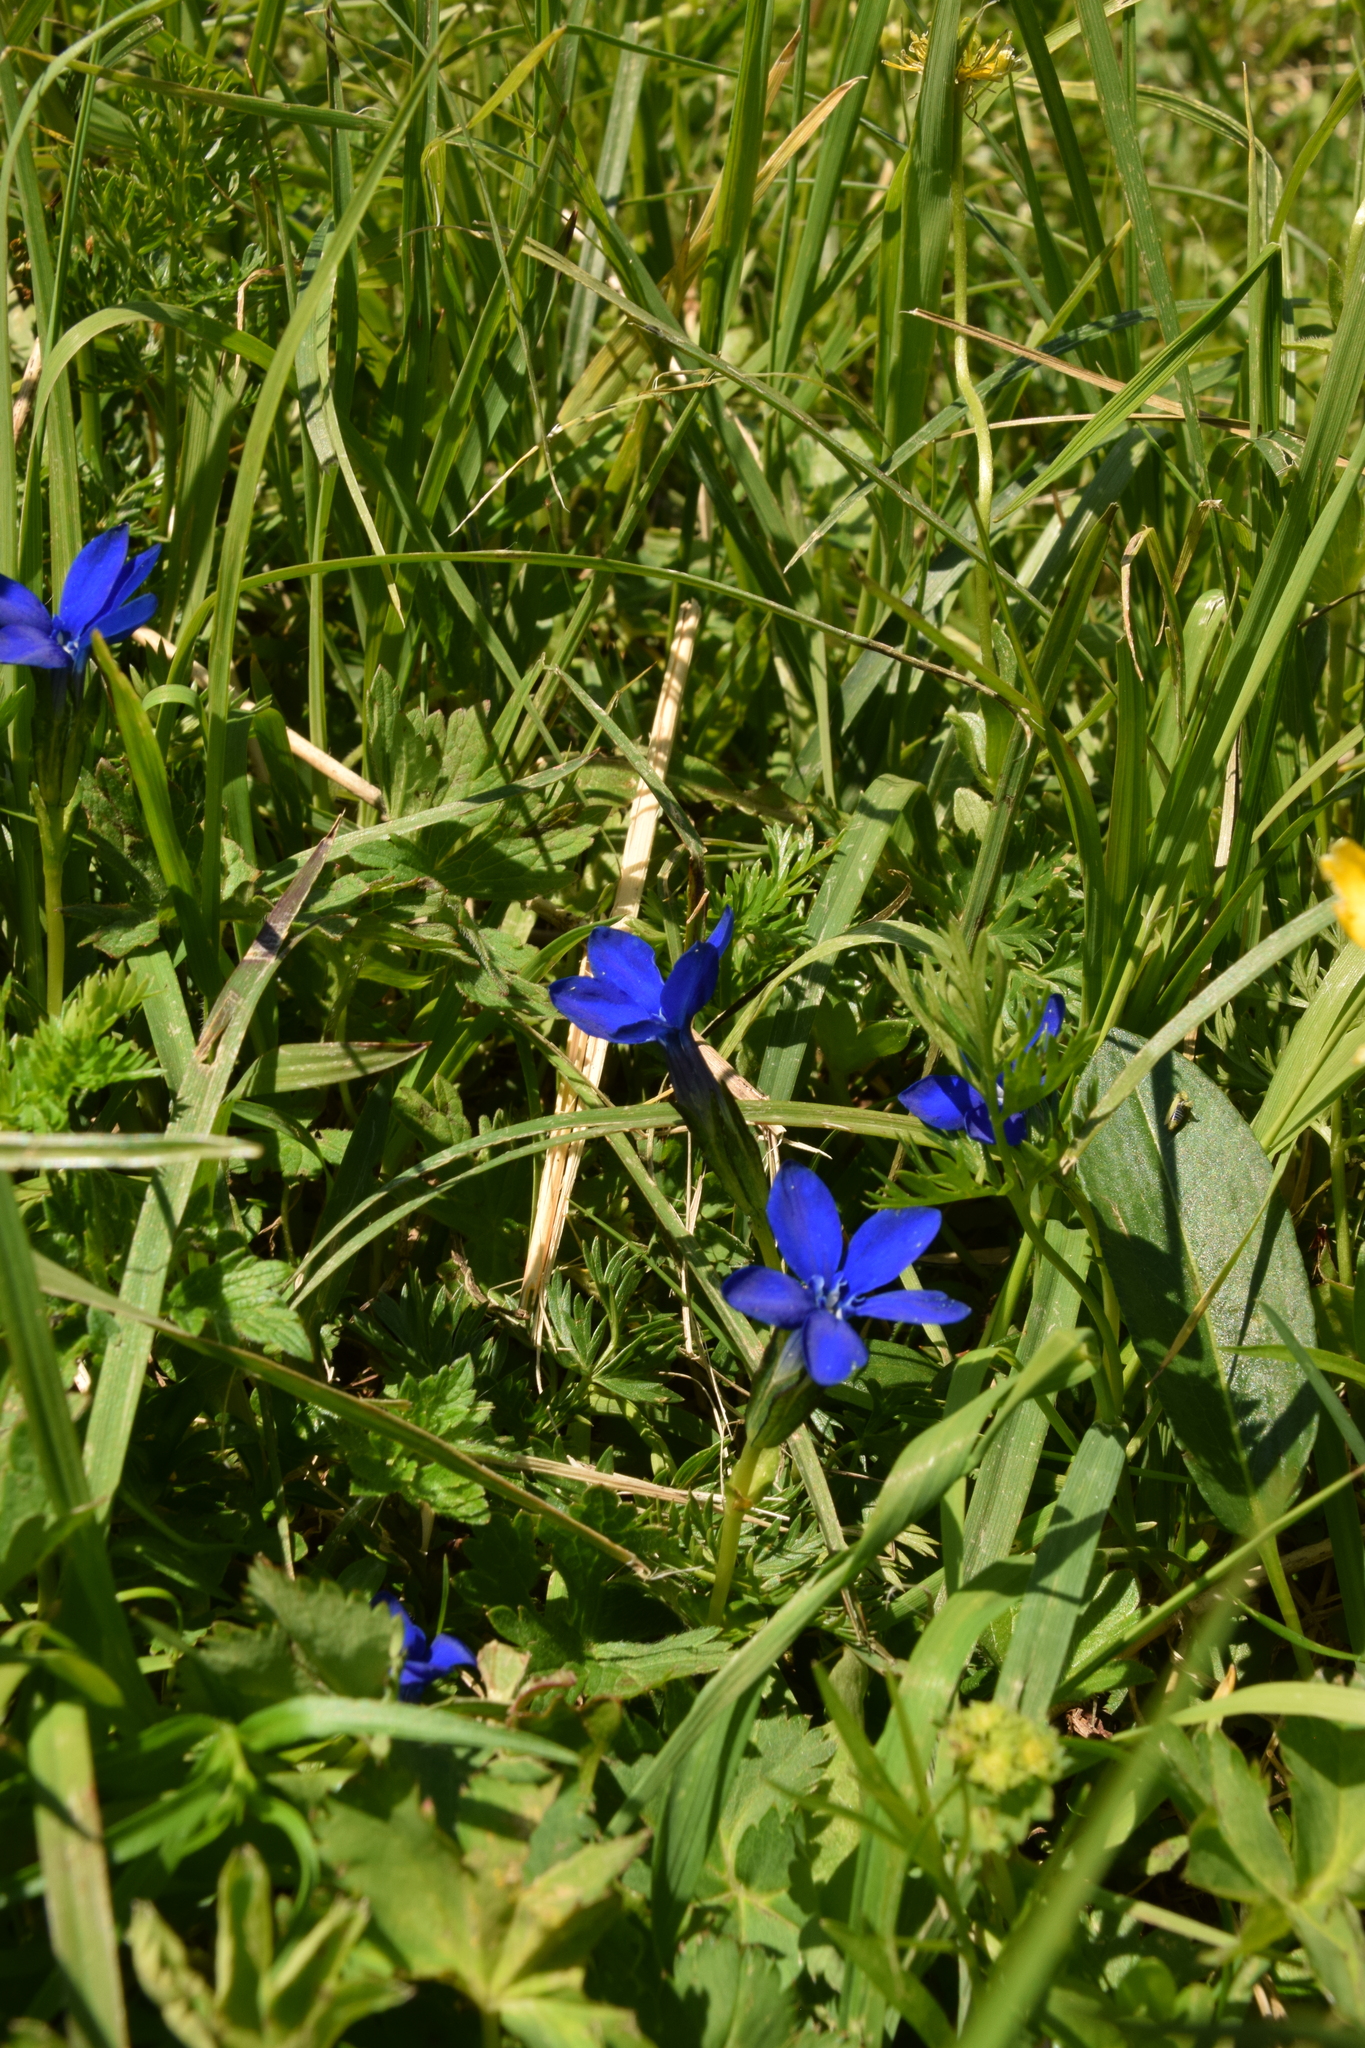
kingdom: Plantae
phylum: Tracheophyta
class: Magnoliopsida
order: Gentianales
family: Gentianaceae
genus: Gentiana
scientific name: Gentiana bavarica
